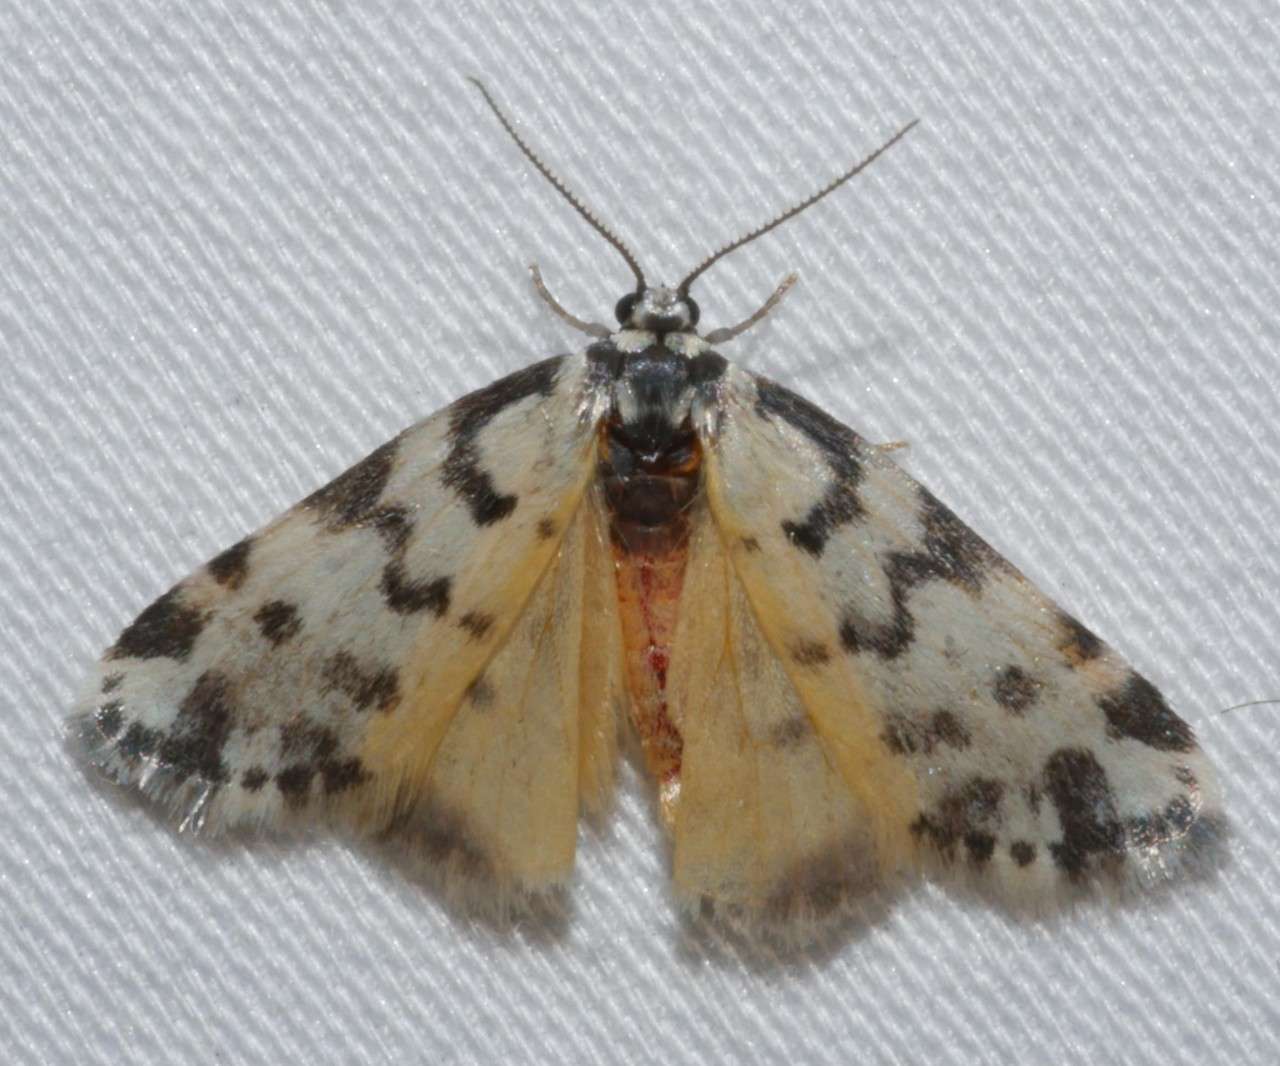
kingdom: Animalia
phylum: Arthropoda
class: Insecta
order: Lepidoptera
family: Erebidae
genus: Thallarcha
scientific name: Thallarcha jocularis
